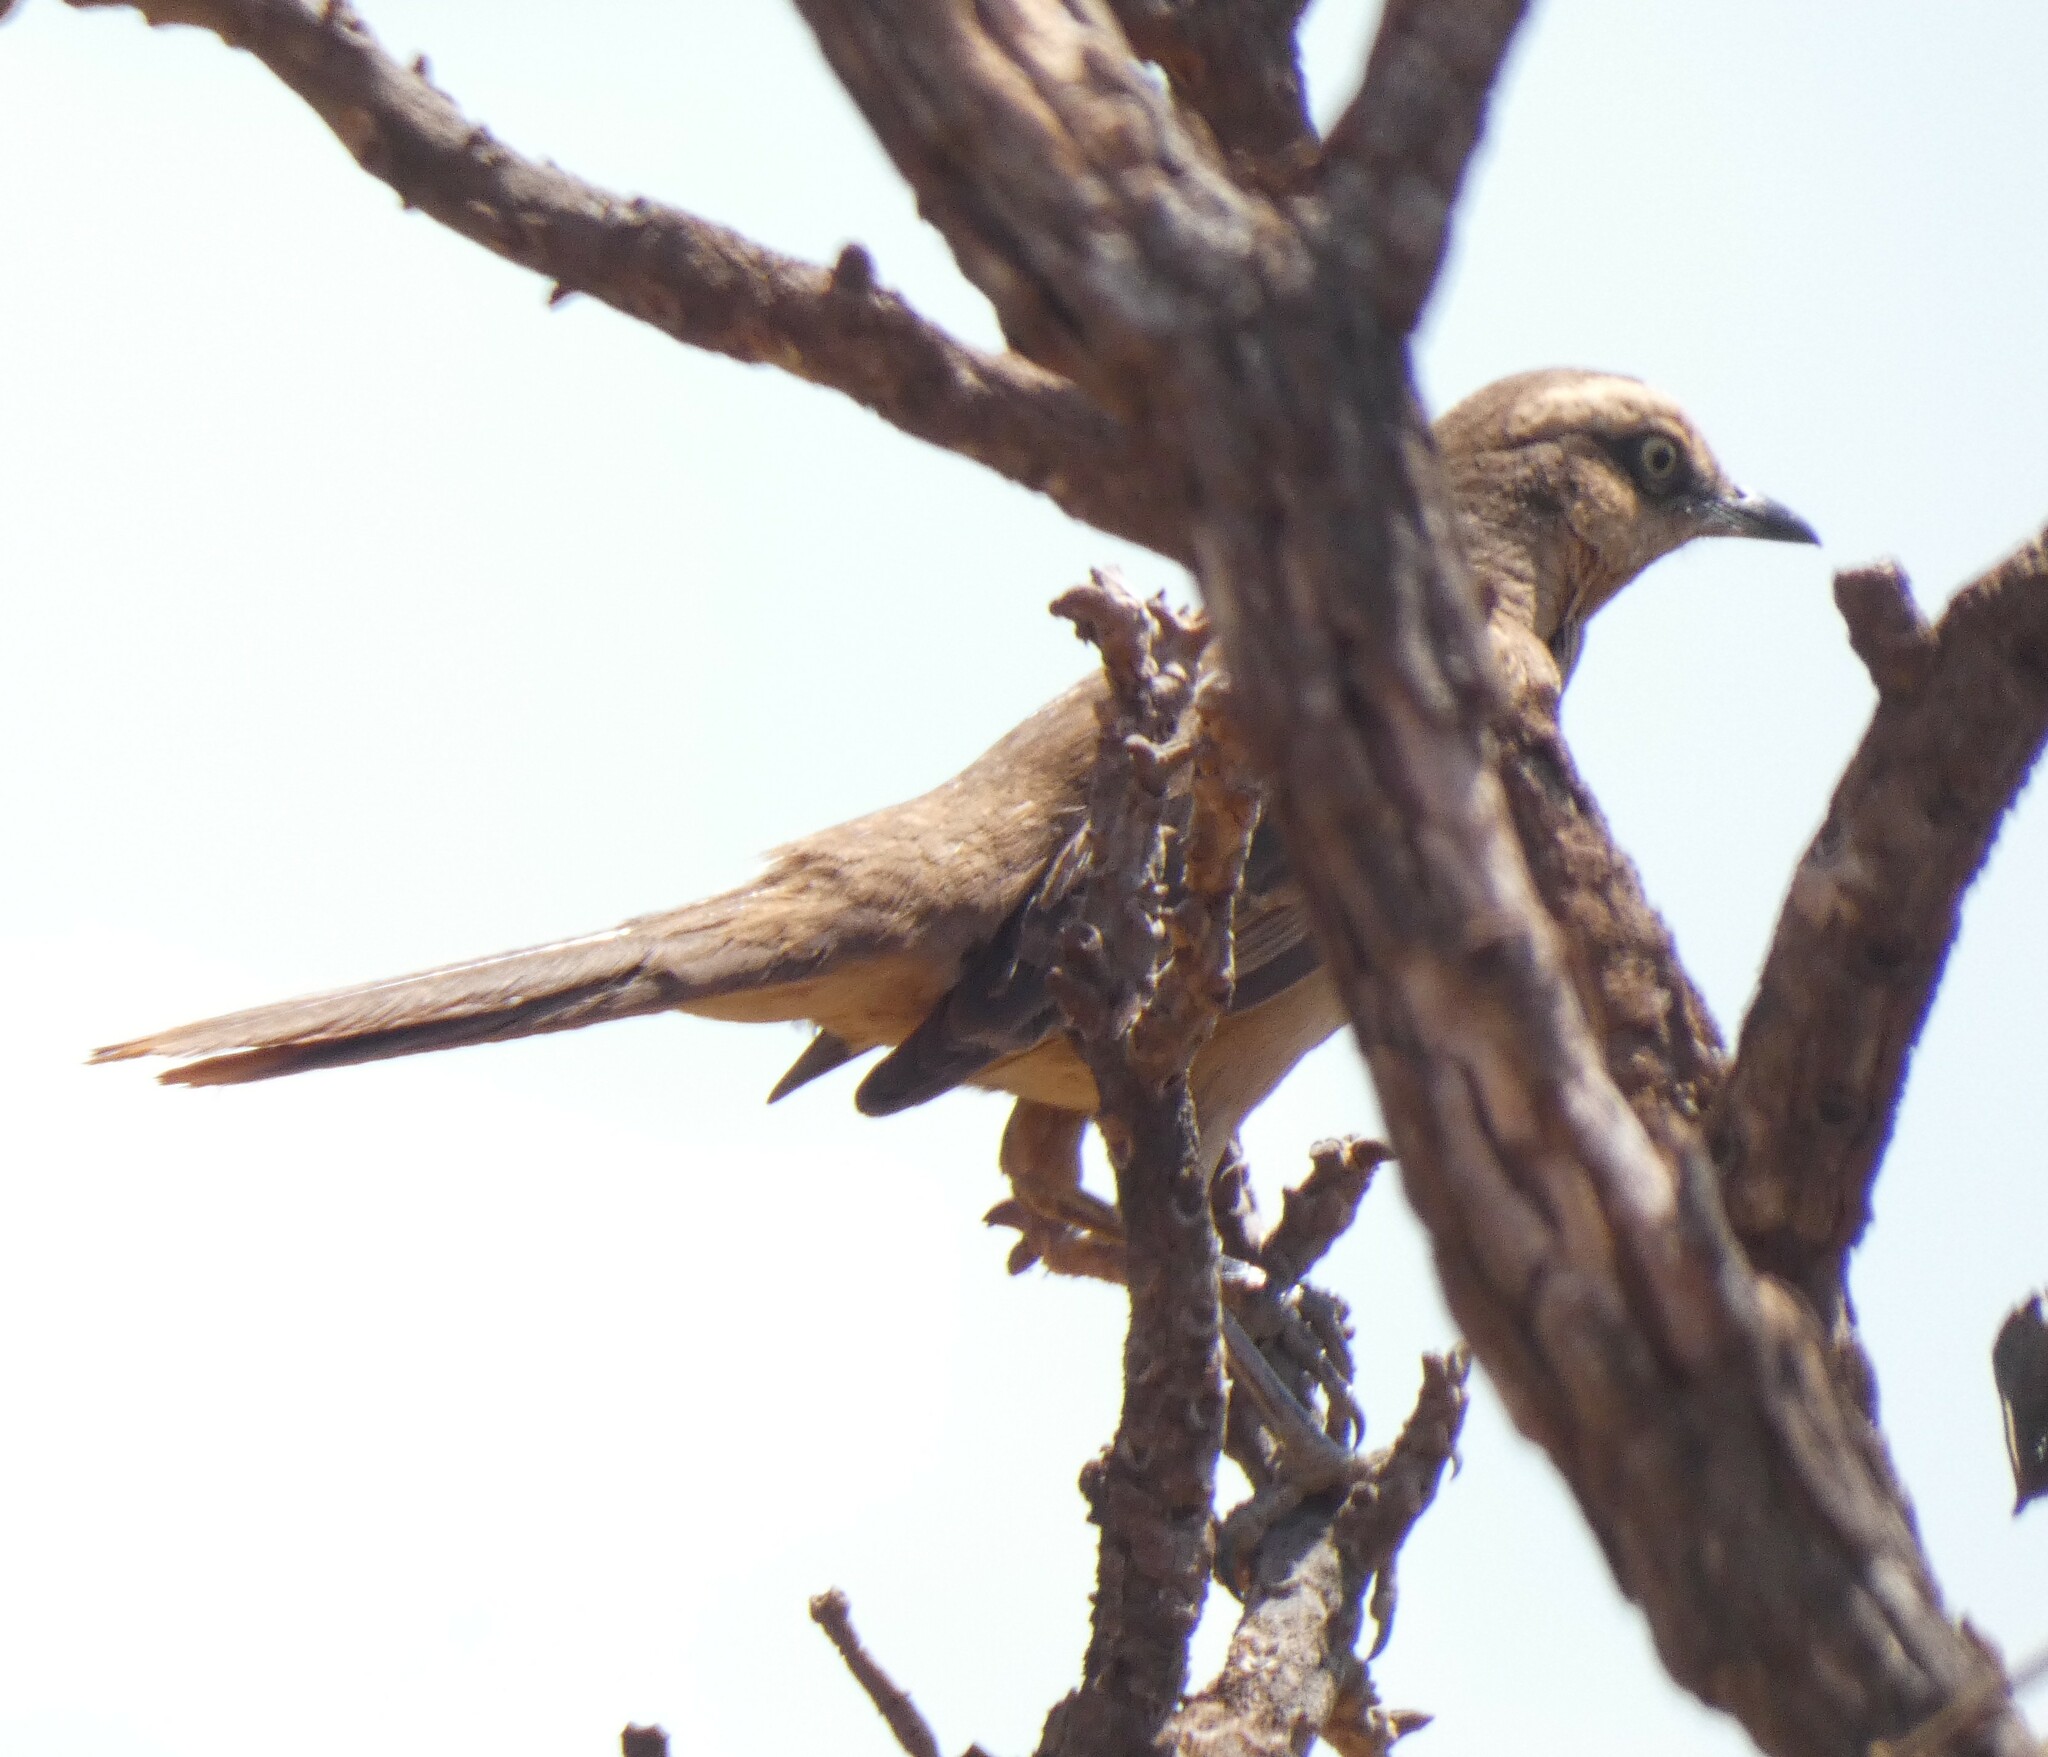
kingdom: Animalia
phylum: Chordata
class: Aves
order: Passeriformes
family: Mimidae
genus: Mimus
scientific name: Mimus saturninus
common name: Chalk-browed mockingbird
